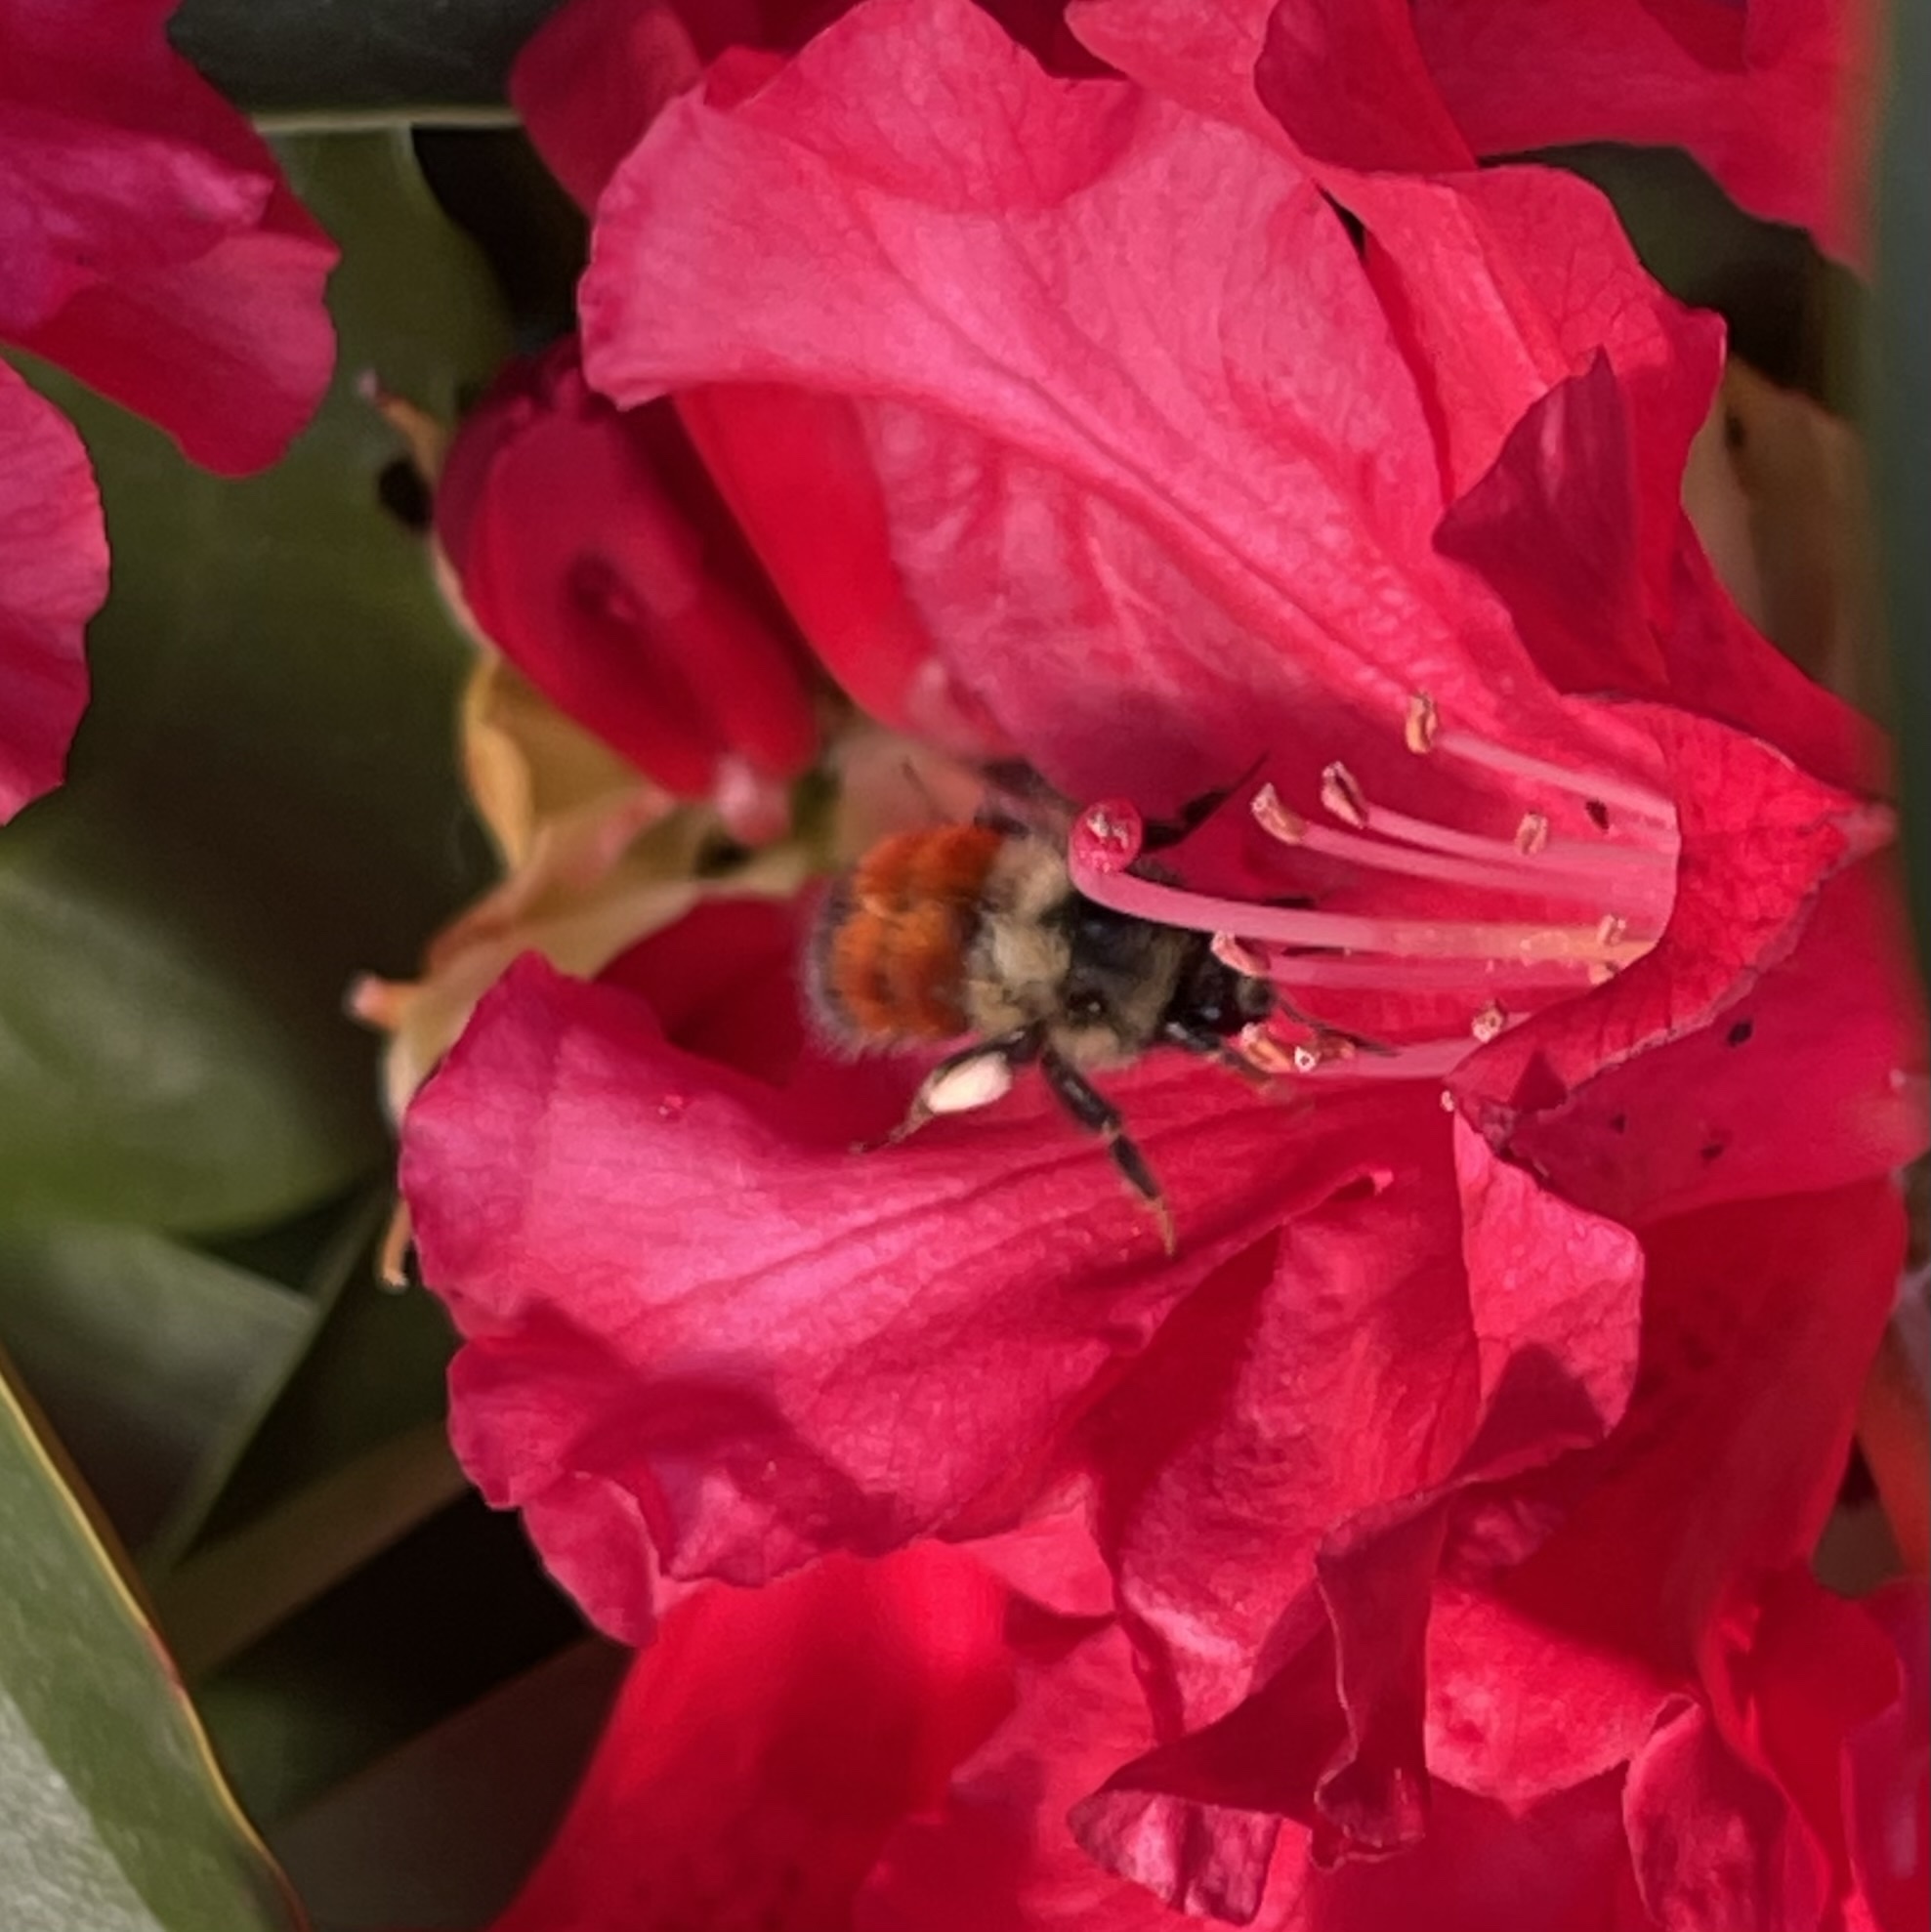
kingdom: Animalia
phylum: Arthropoda
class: Insecta
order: Hymenoptera
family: Apidae
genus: Bombus
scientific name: Bombus melanopygus
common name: Black tail bumble bee
